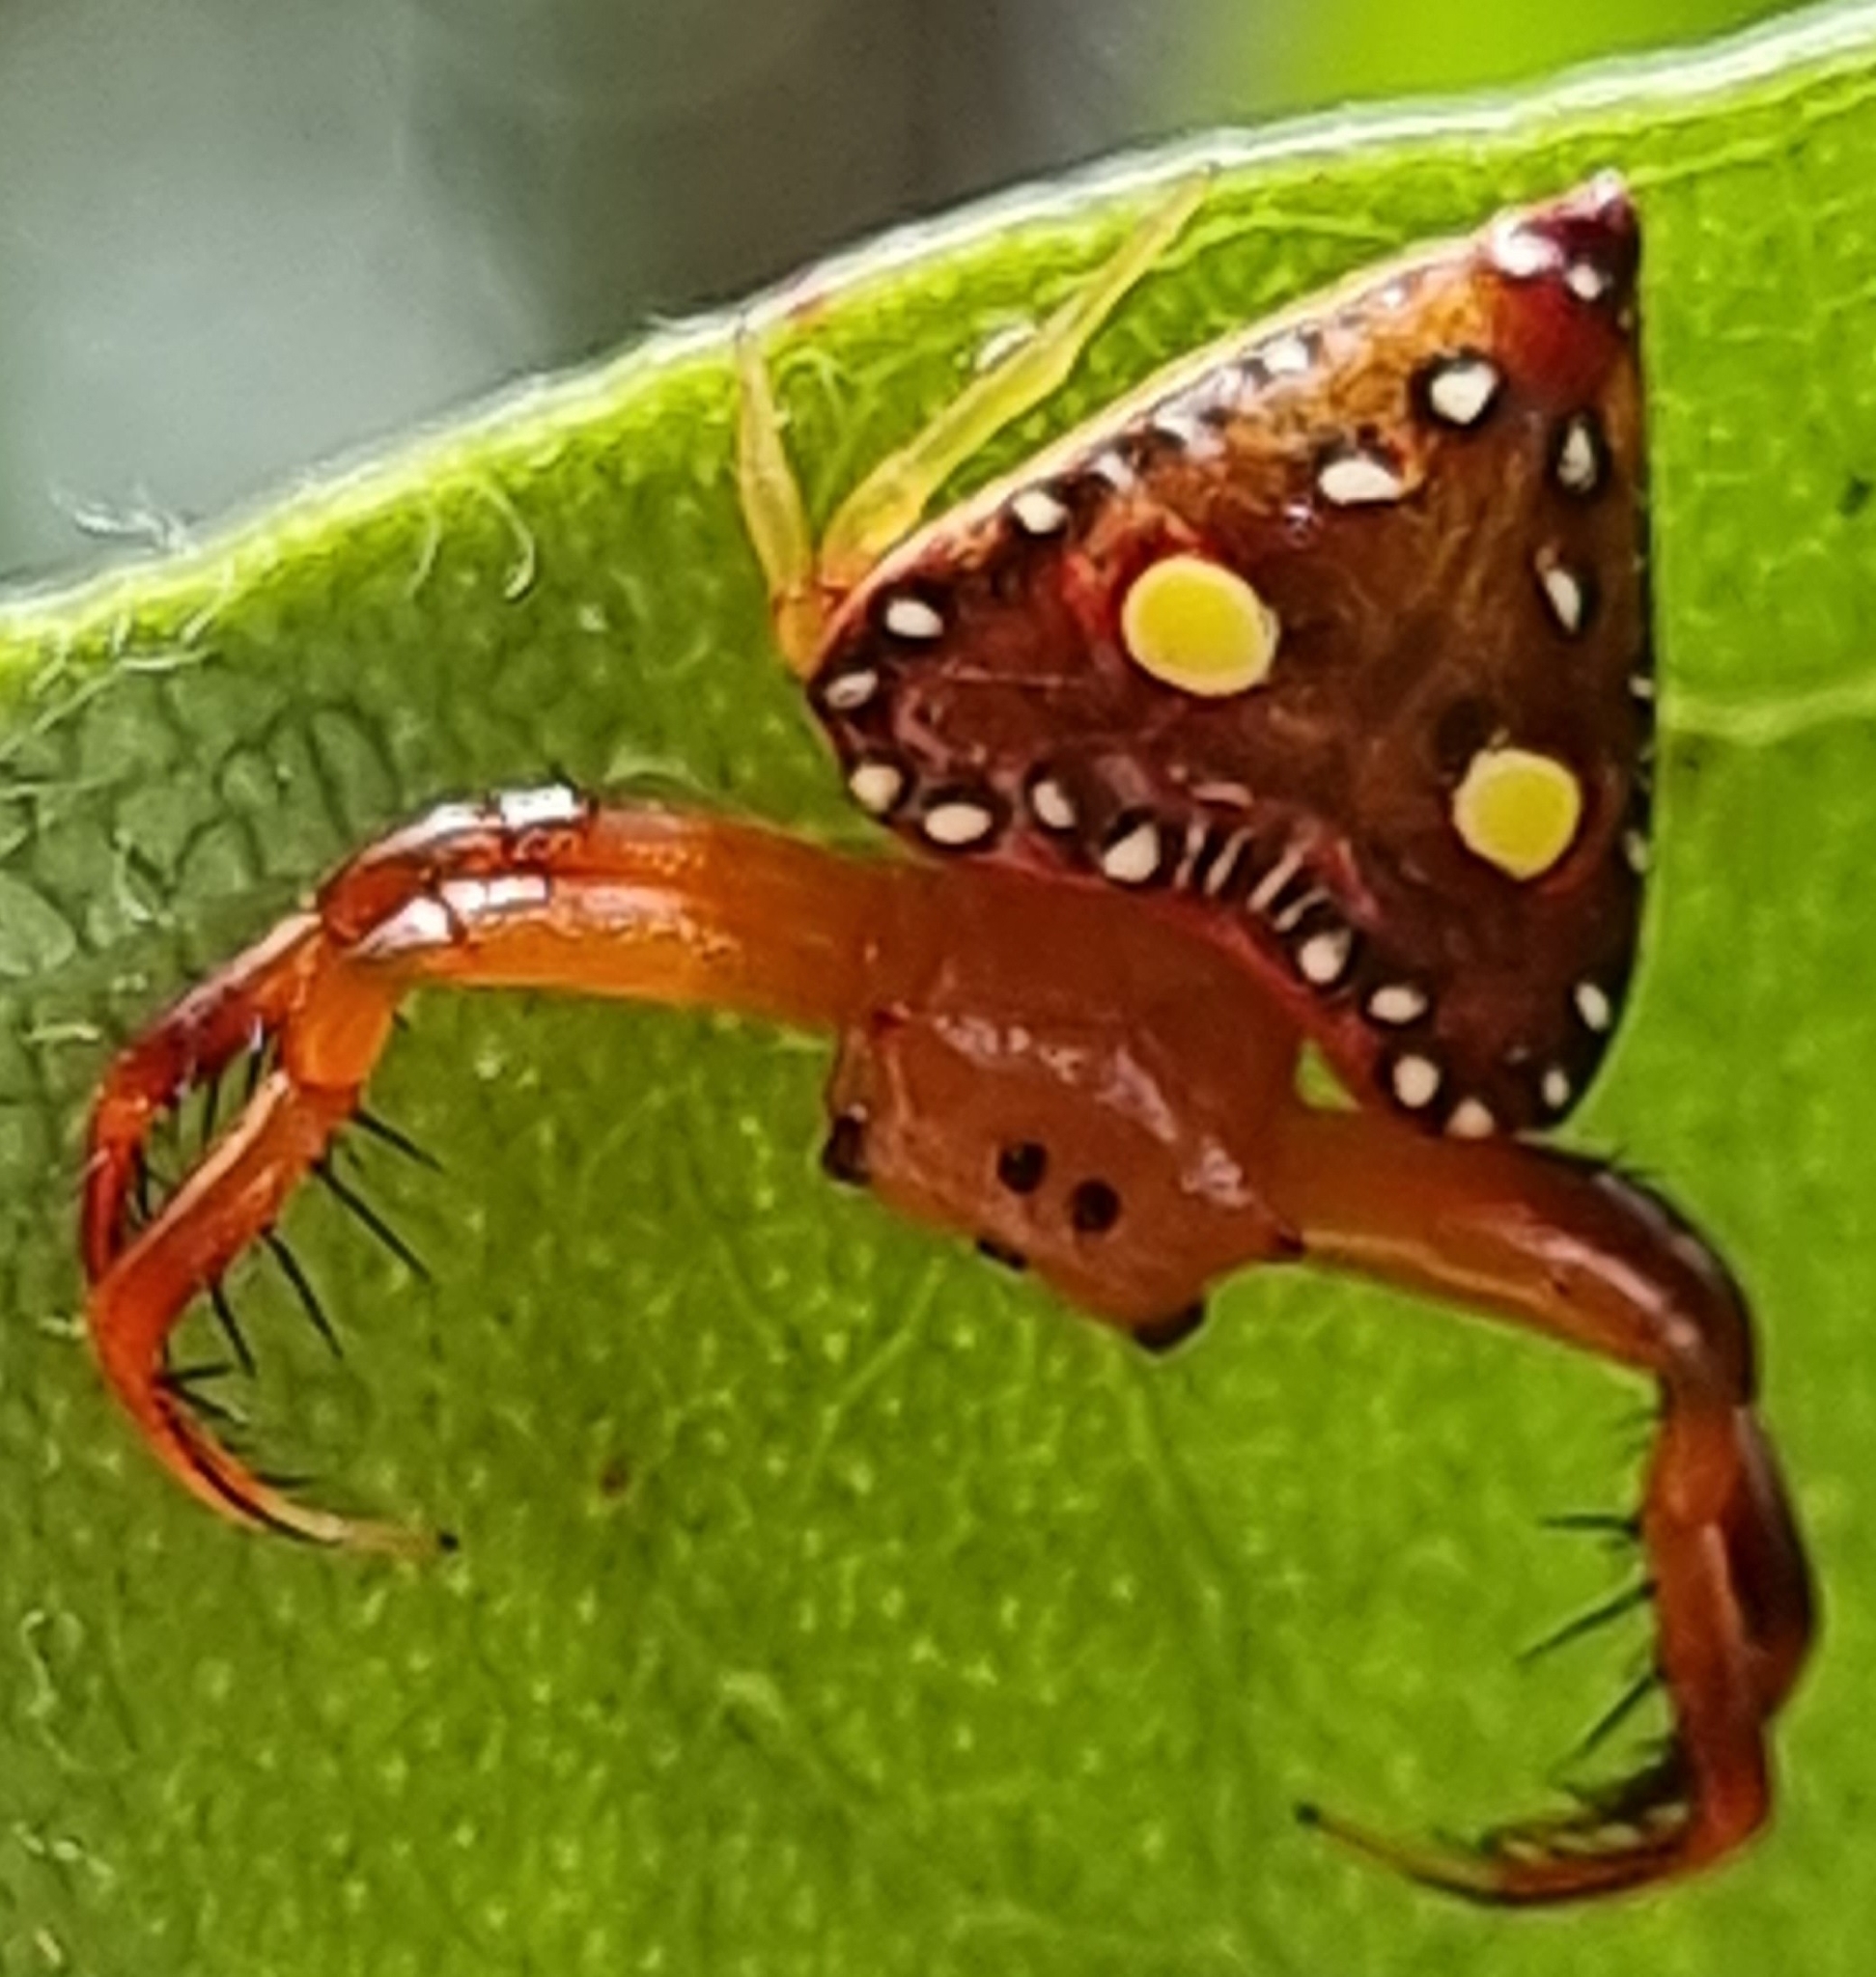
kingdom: Animalia
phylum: Arthropoda
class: Arachnida
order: Araneae
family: Arkyidae
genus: Arkys
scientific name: Arkys lancearius
